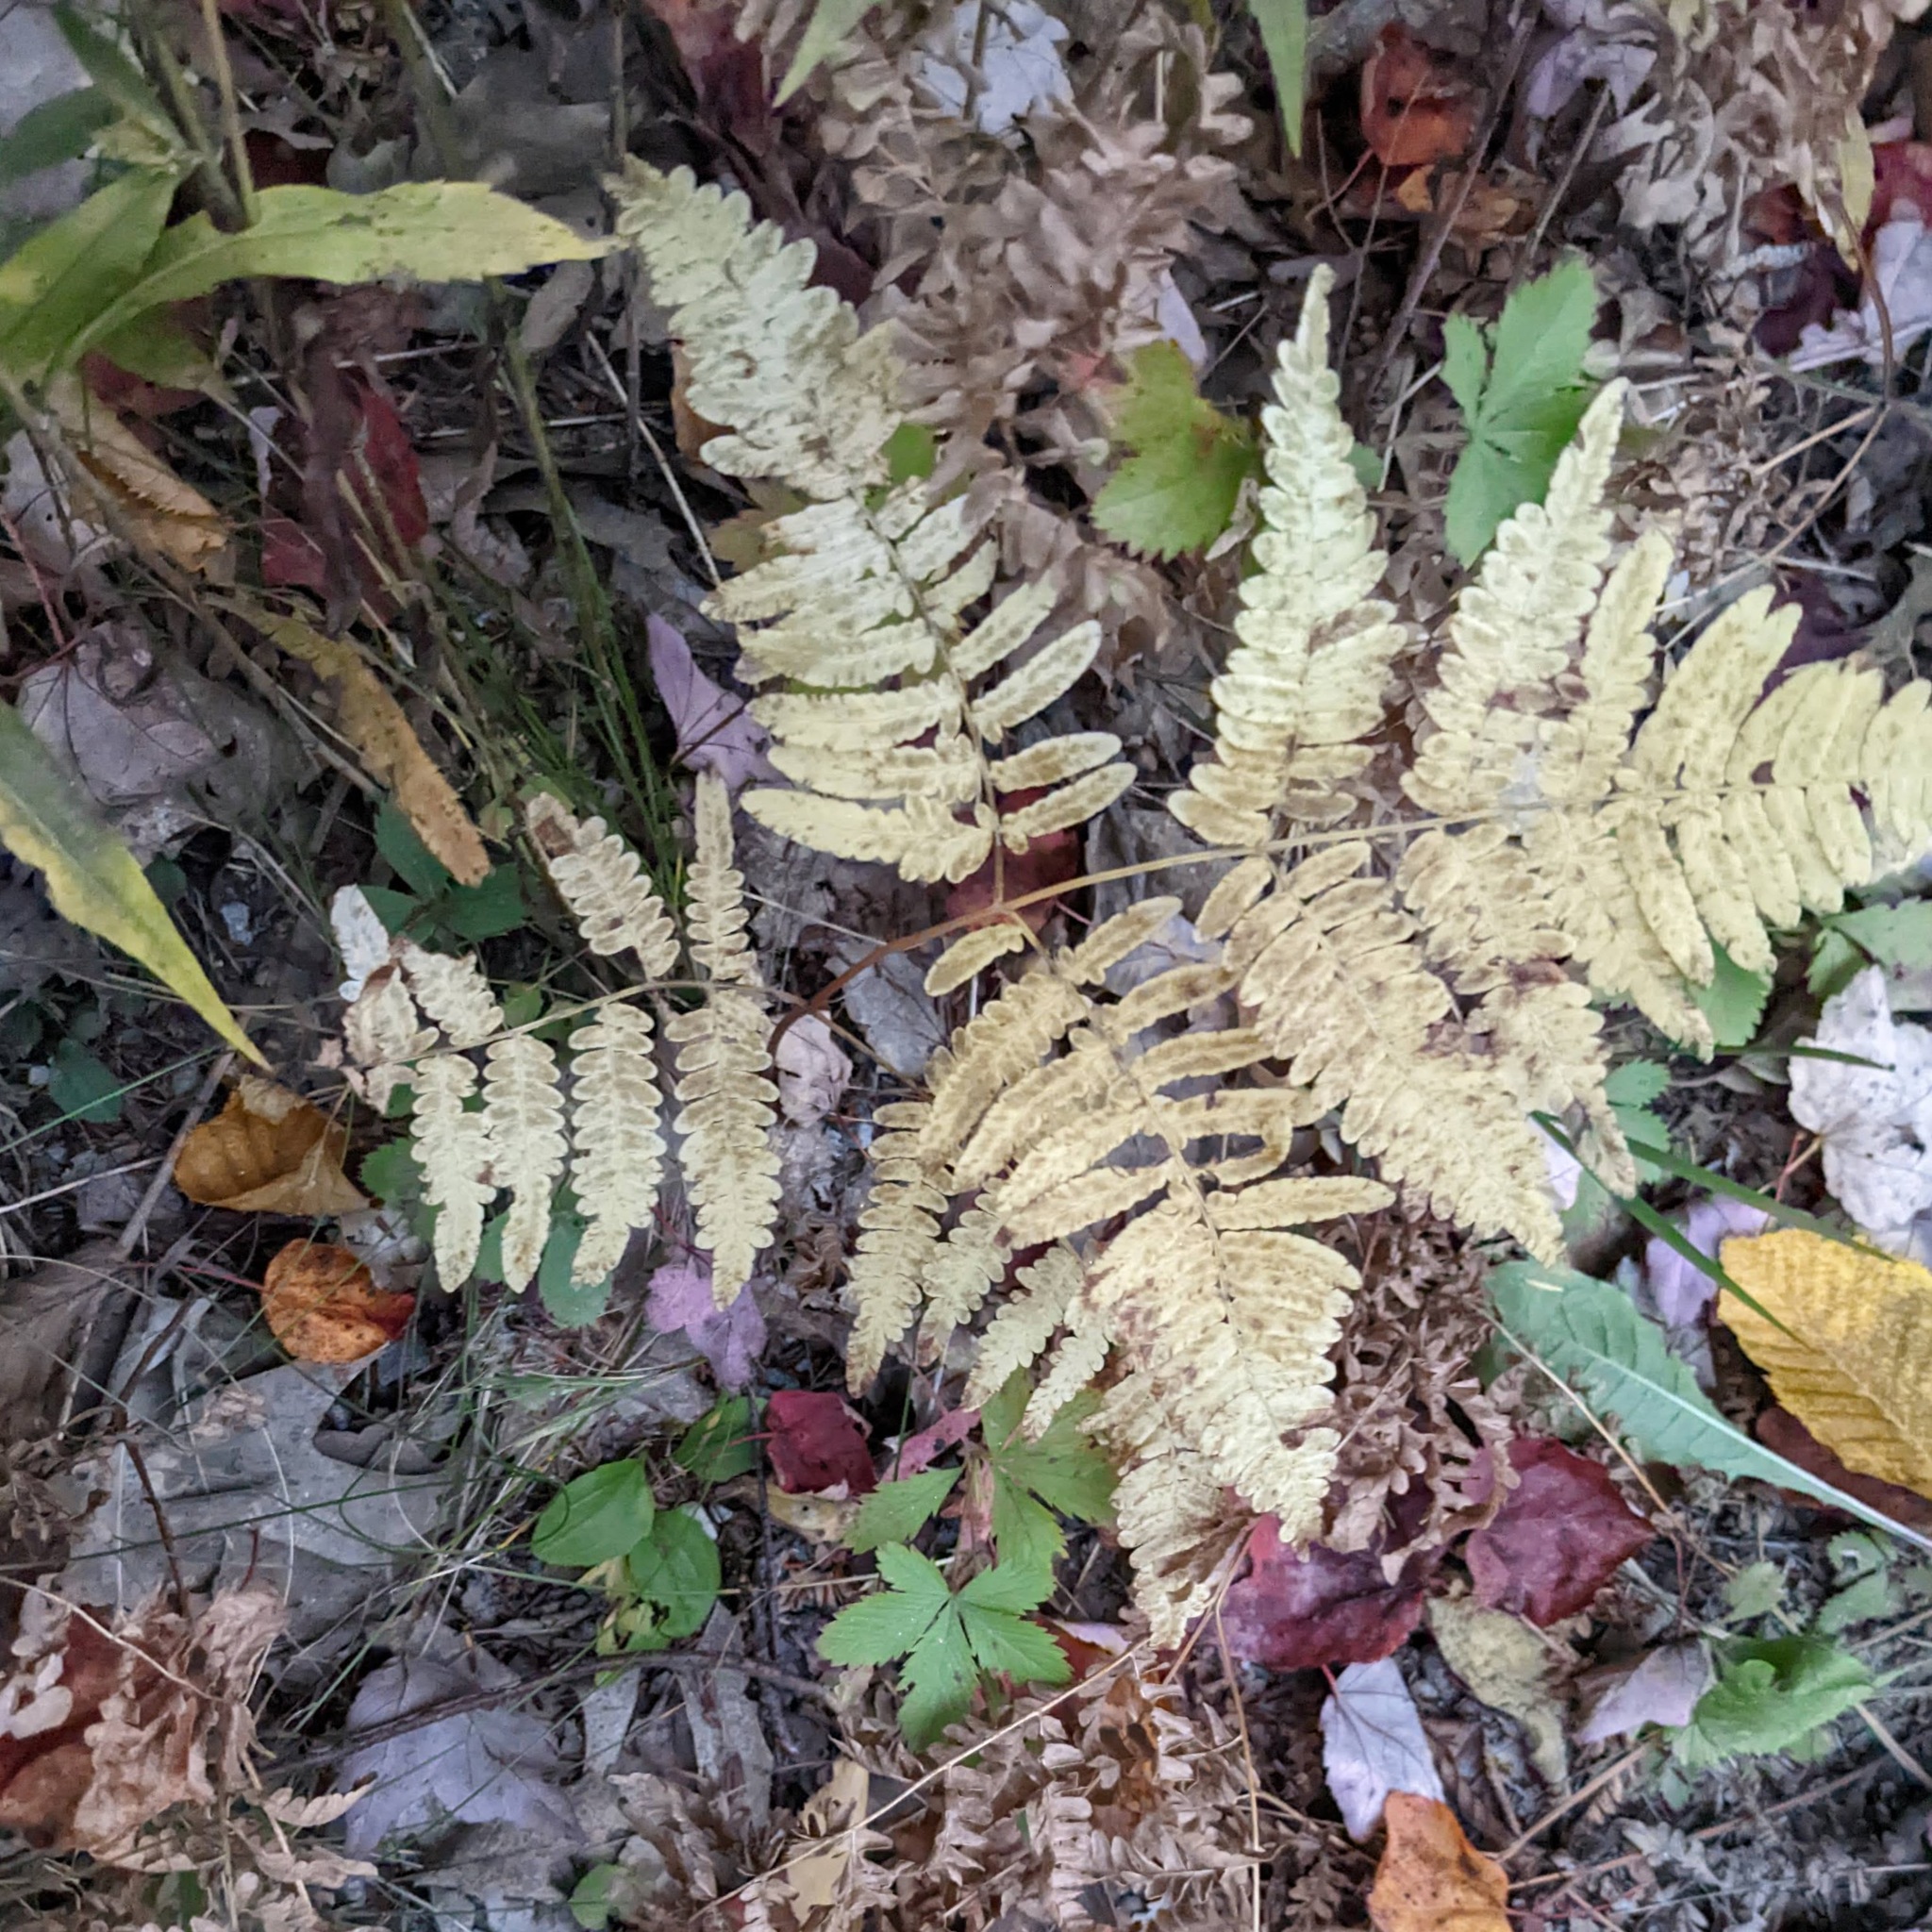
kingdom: Plantae
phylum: Tracheophyta
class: Polypodiopsida
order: Polypodiales
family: Dennstaedtiaceae
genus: Pteridium
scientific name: Pteridium aquilinum
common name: Bracken
